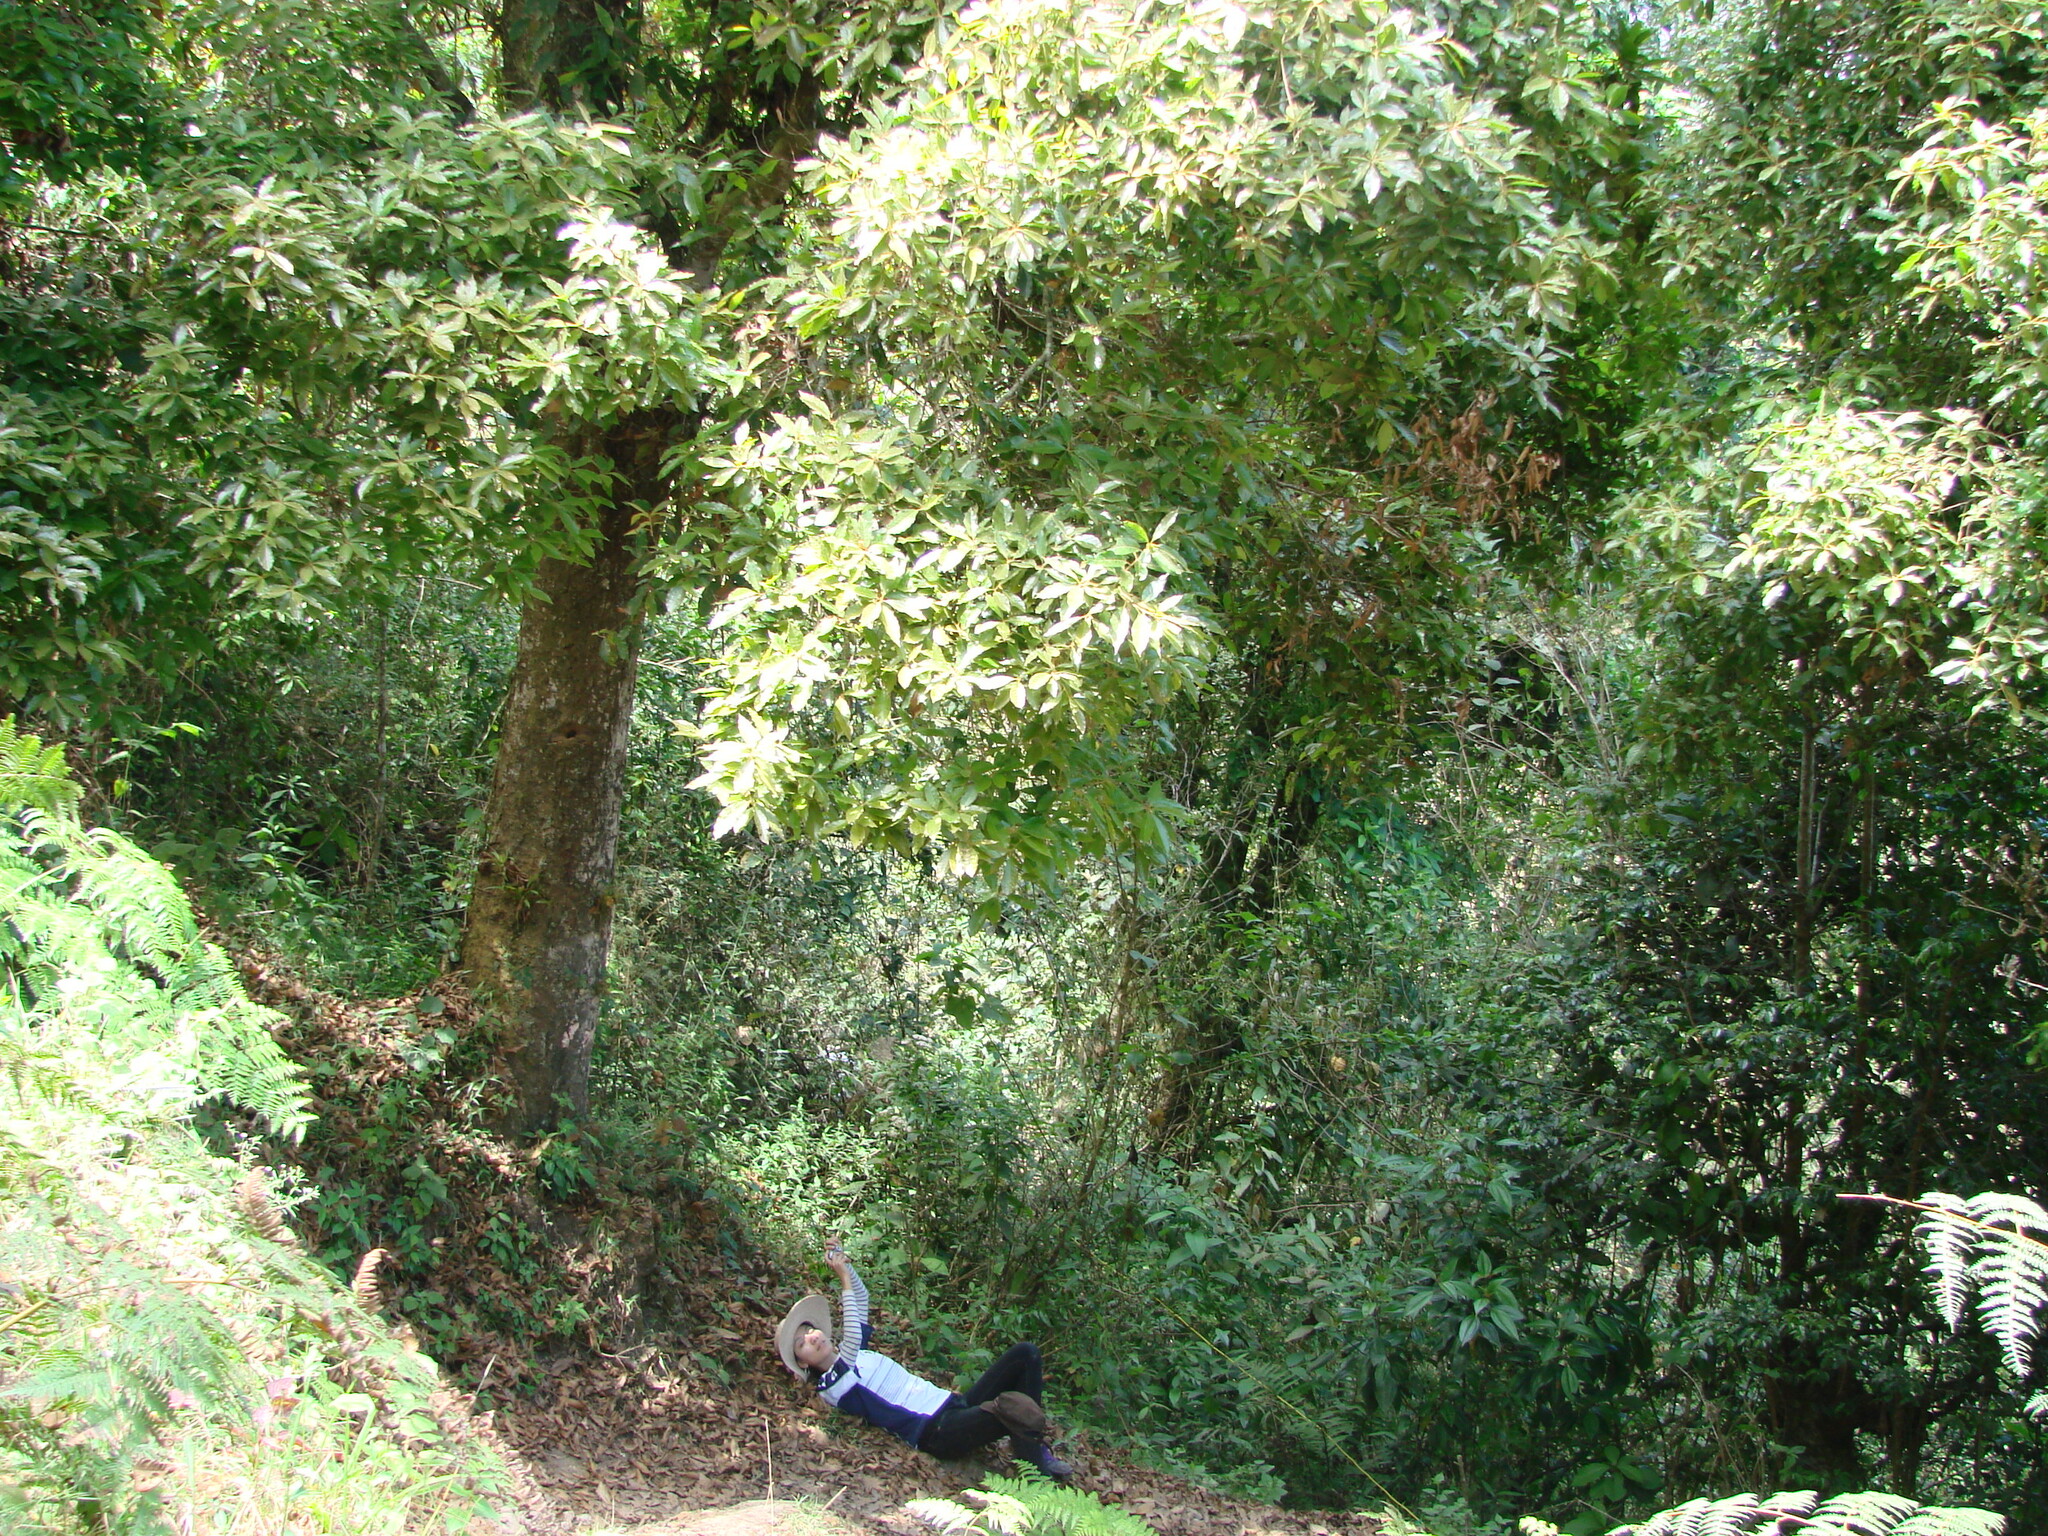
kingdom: Plantae
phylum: Tracheophyta
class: Magnoliopsida
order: Proteales
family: Sabiaceae
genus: Meliosma
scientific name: Meliosma grandifolia
